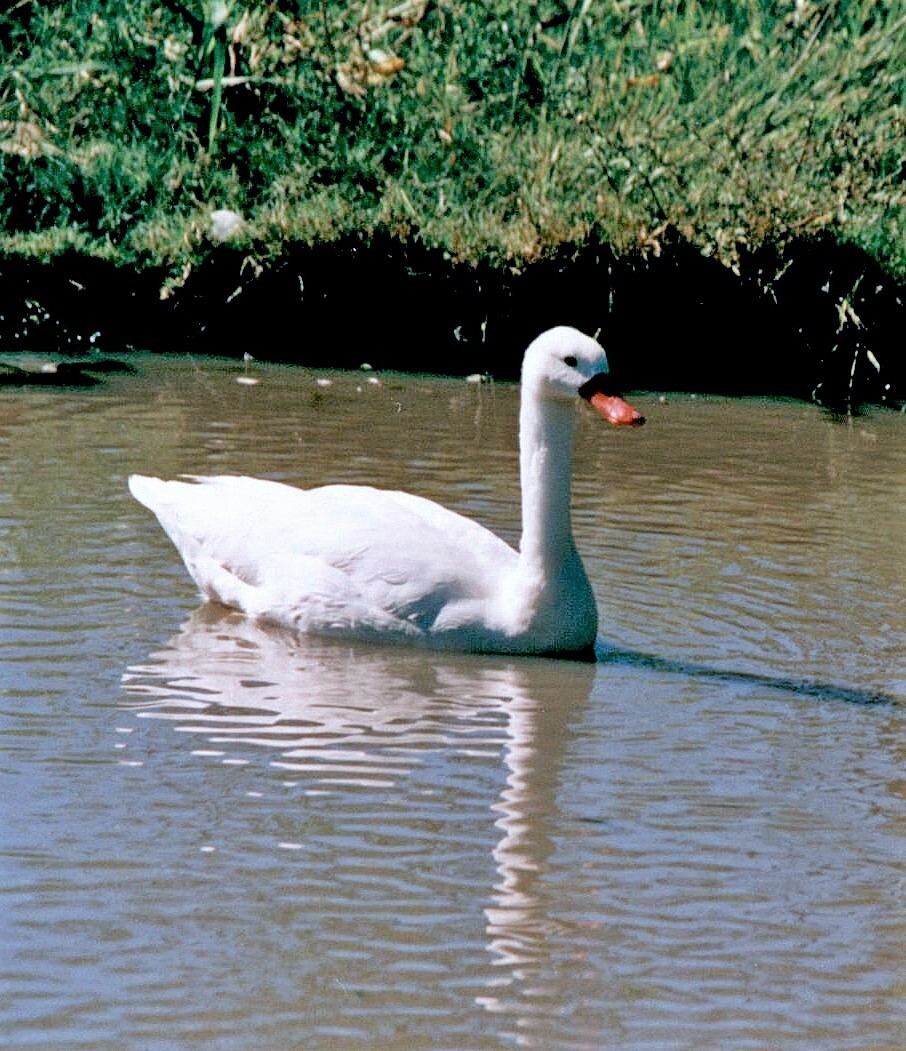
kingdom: Animalia
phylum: Chordata
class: Aves
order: Anseriformes
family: Anatidae
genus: Coscoroba
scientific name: Coscoroba coscoroba
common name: Coscoroba swan
